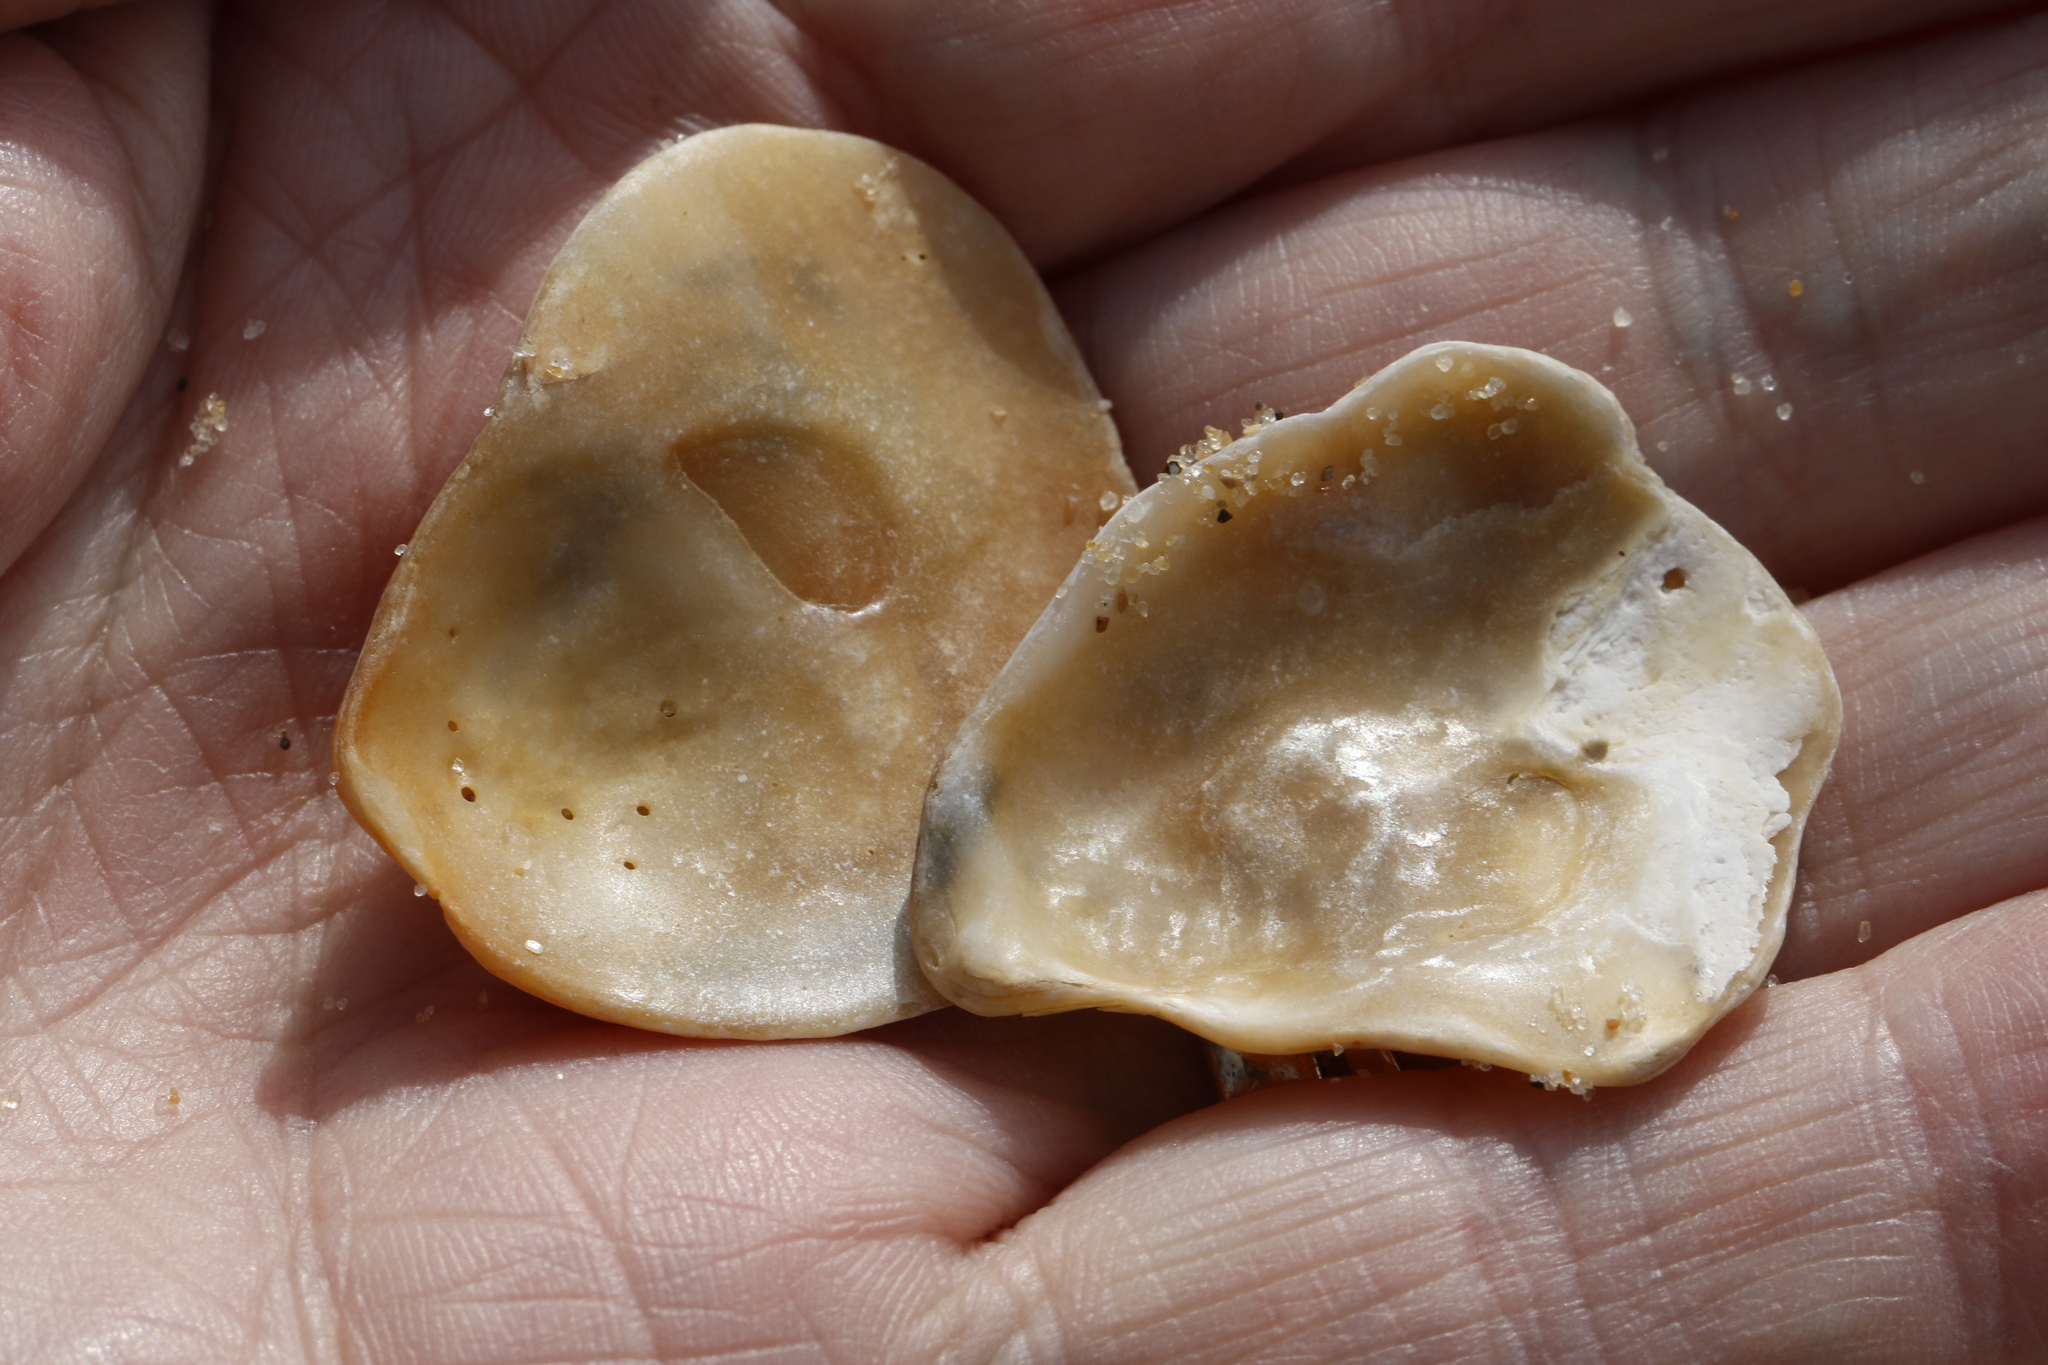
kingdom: Animalia
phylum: Mollusca
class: Bivalvia
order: Pectinida
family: Anomiidae
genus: Anomia
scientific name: Anomia ephippium
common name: Saddle oyster
